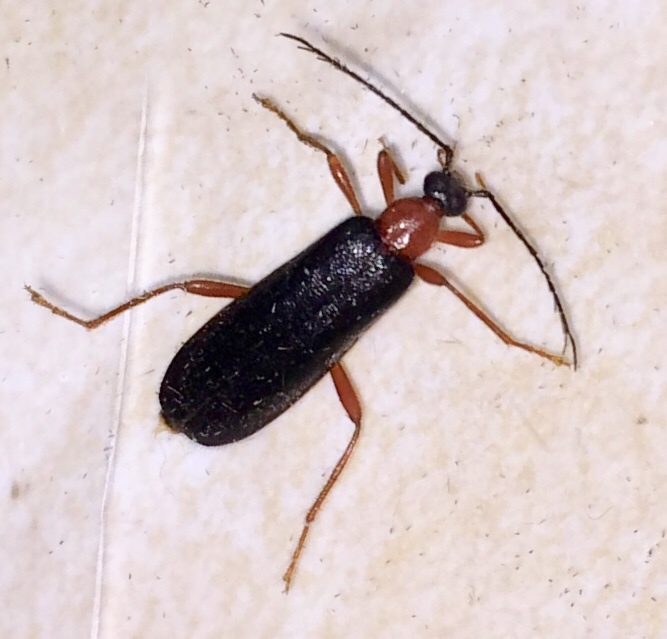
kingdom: Animalia
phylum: Arthropoda
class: Insecta
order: Coleoptera
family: Pyrochroidae
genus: Dendroides
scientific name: Dendroides canadensis
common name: Canada fire-colored beetle
